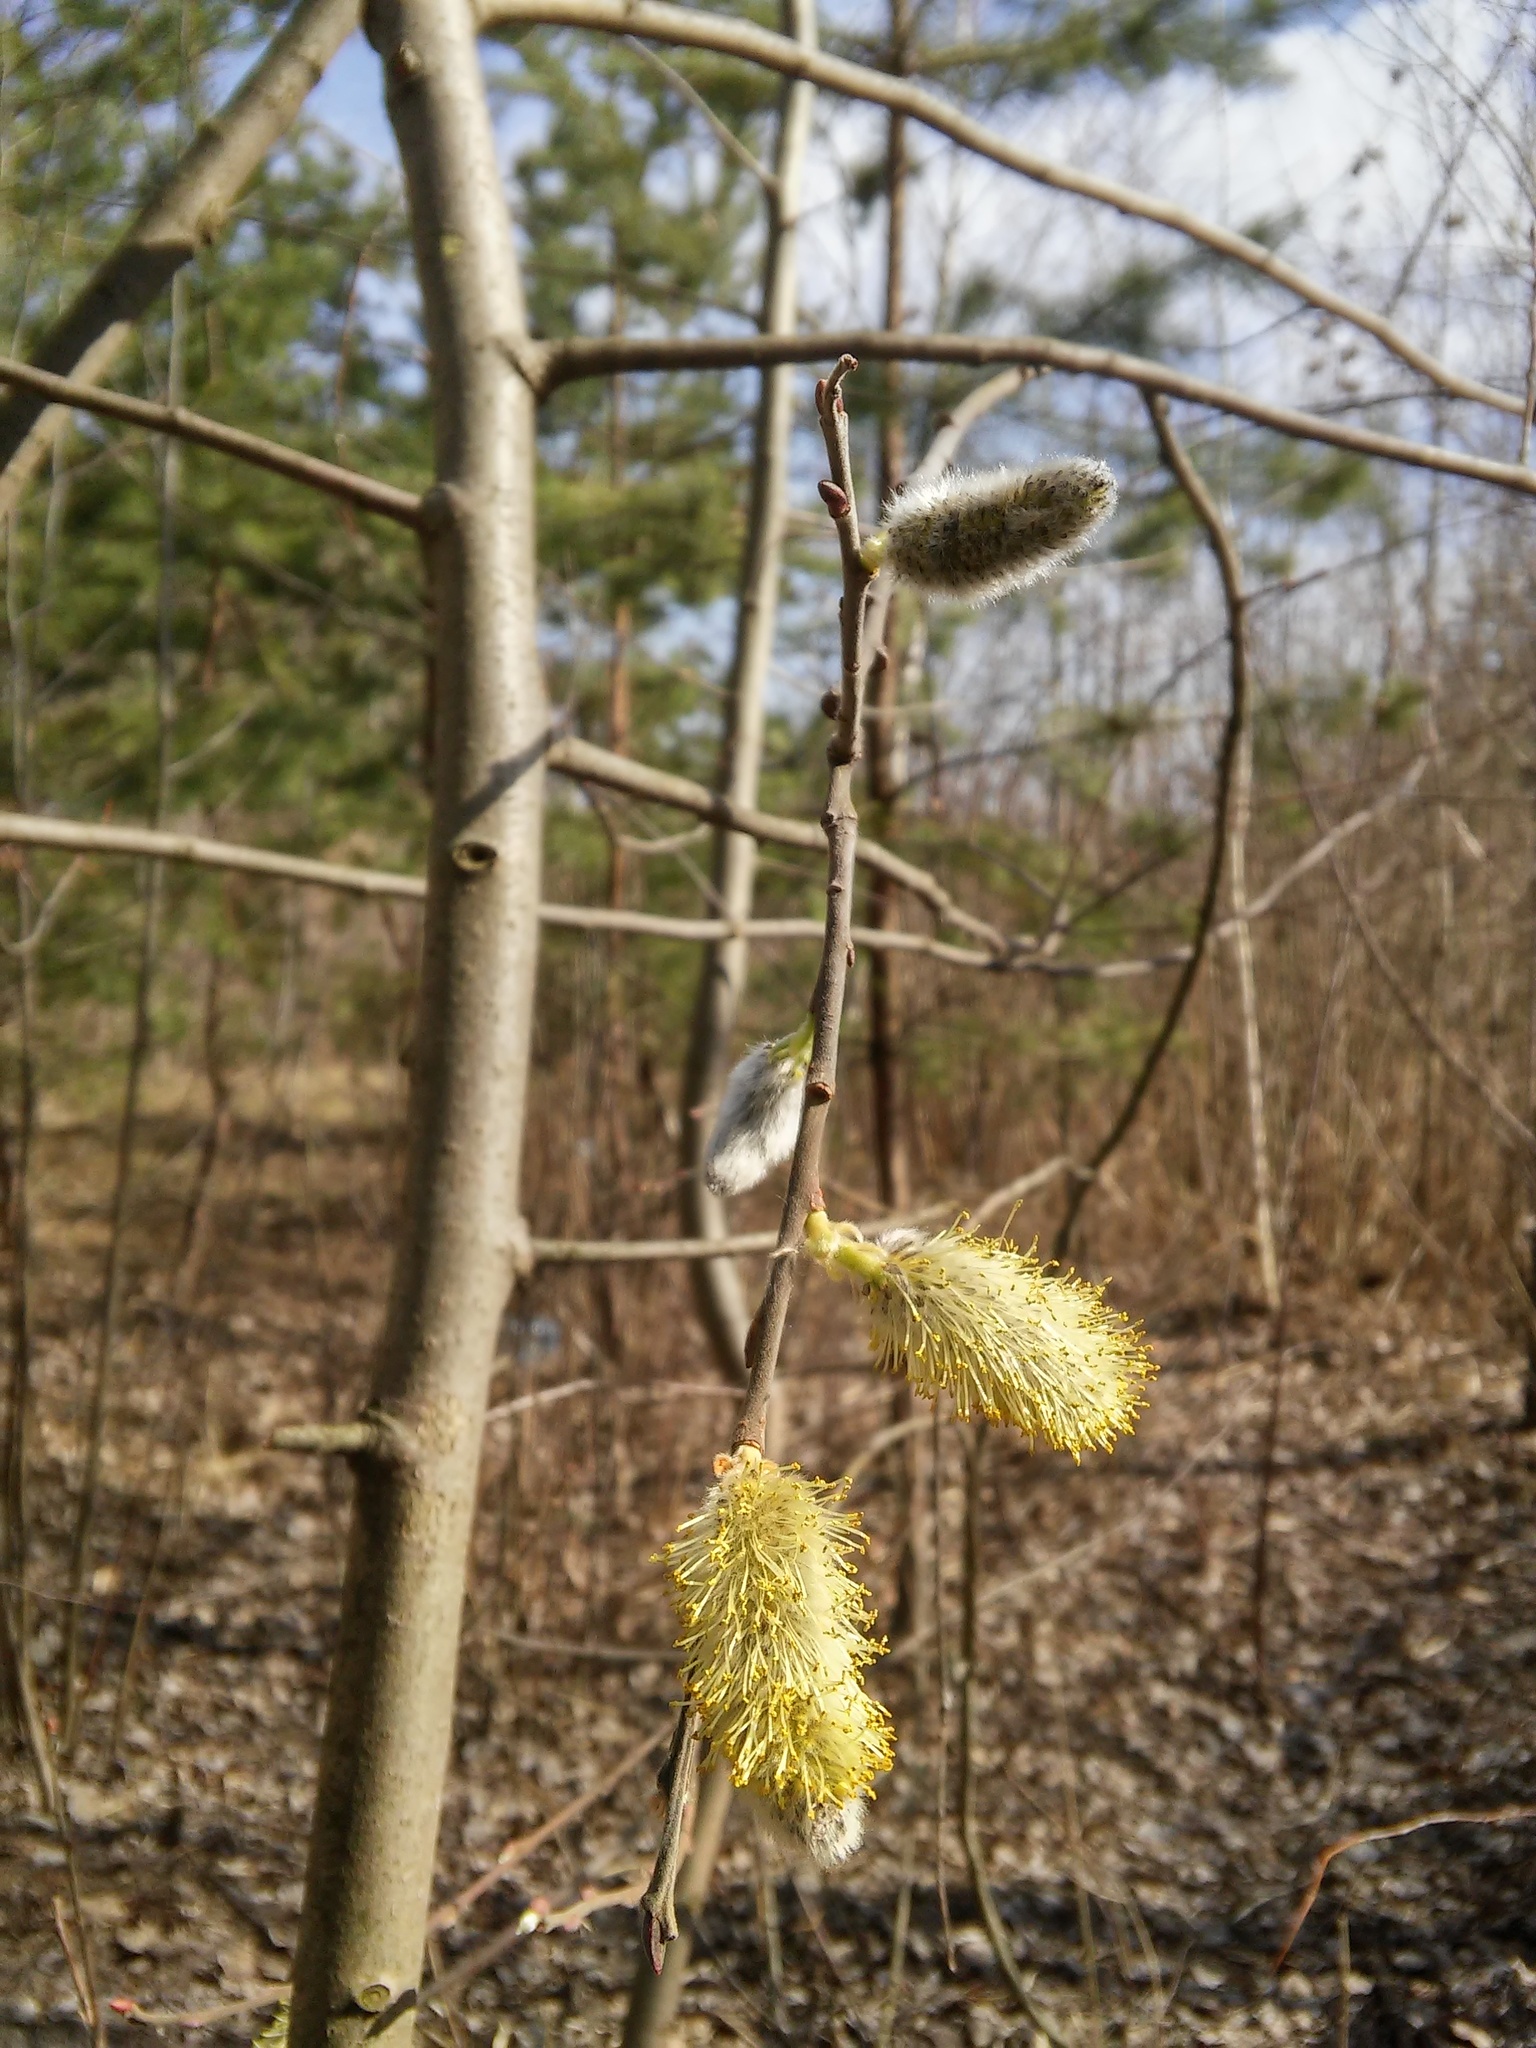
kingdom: Plantae
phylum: Tracheophyta
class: Magnoliopsida
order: Malpighiales
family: Salicaceae
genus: Salix
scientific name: Salix caprea
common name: Goat willow
